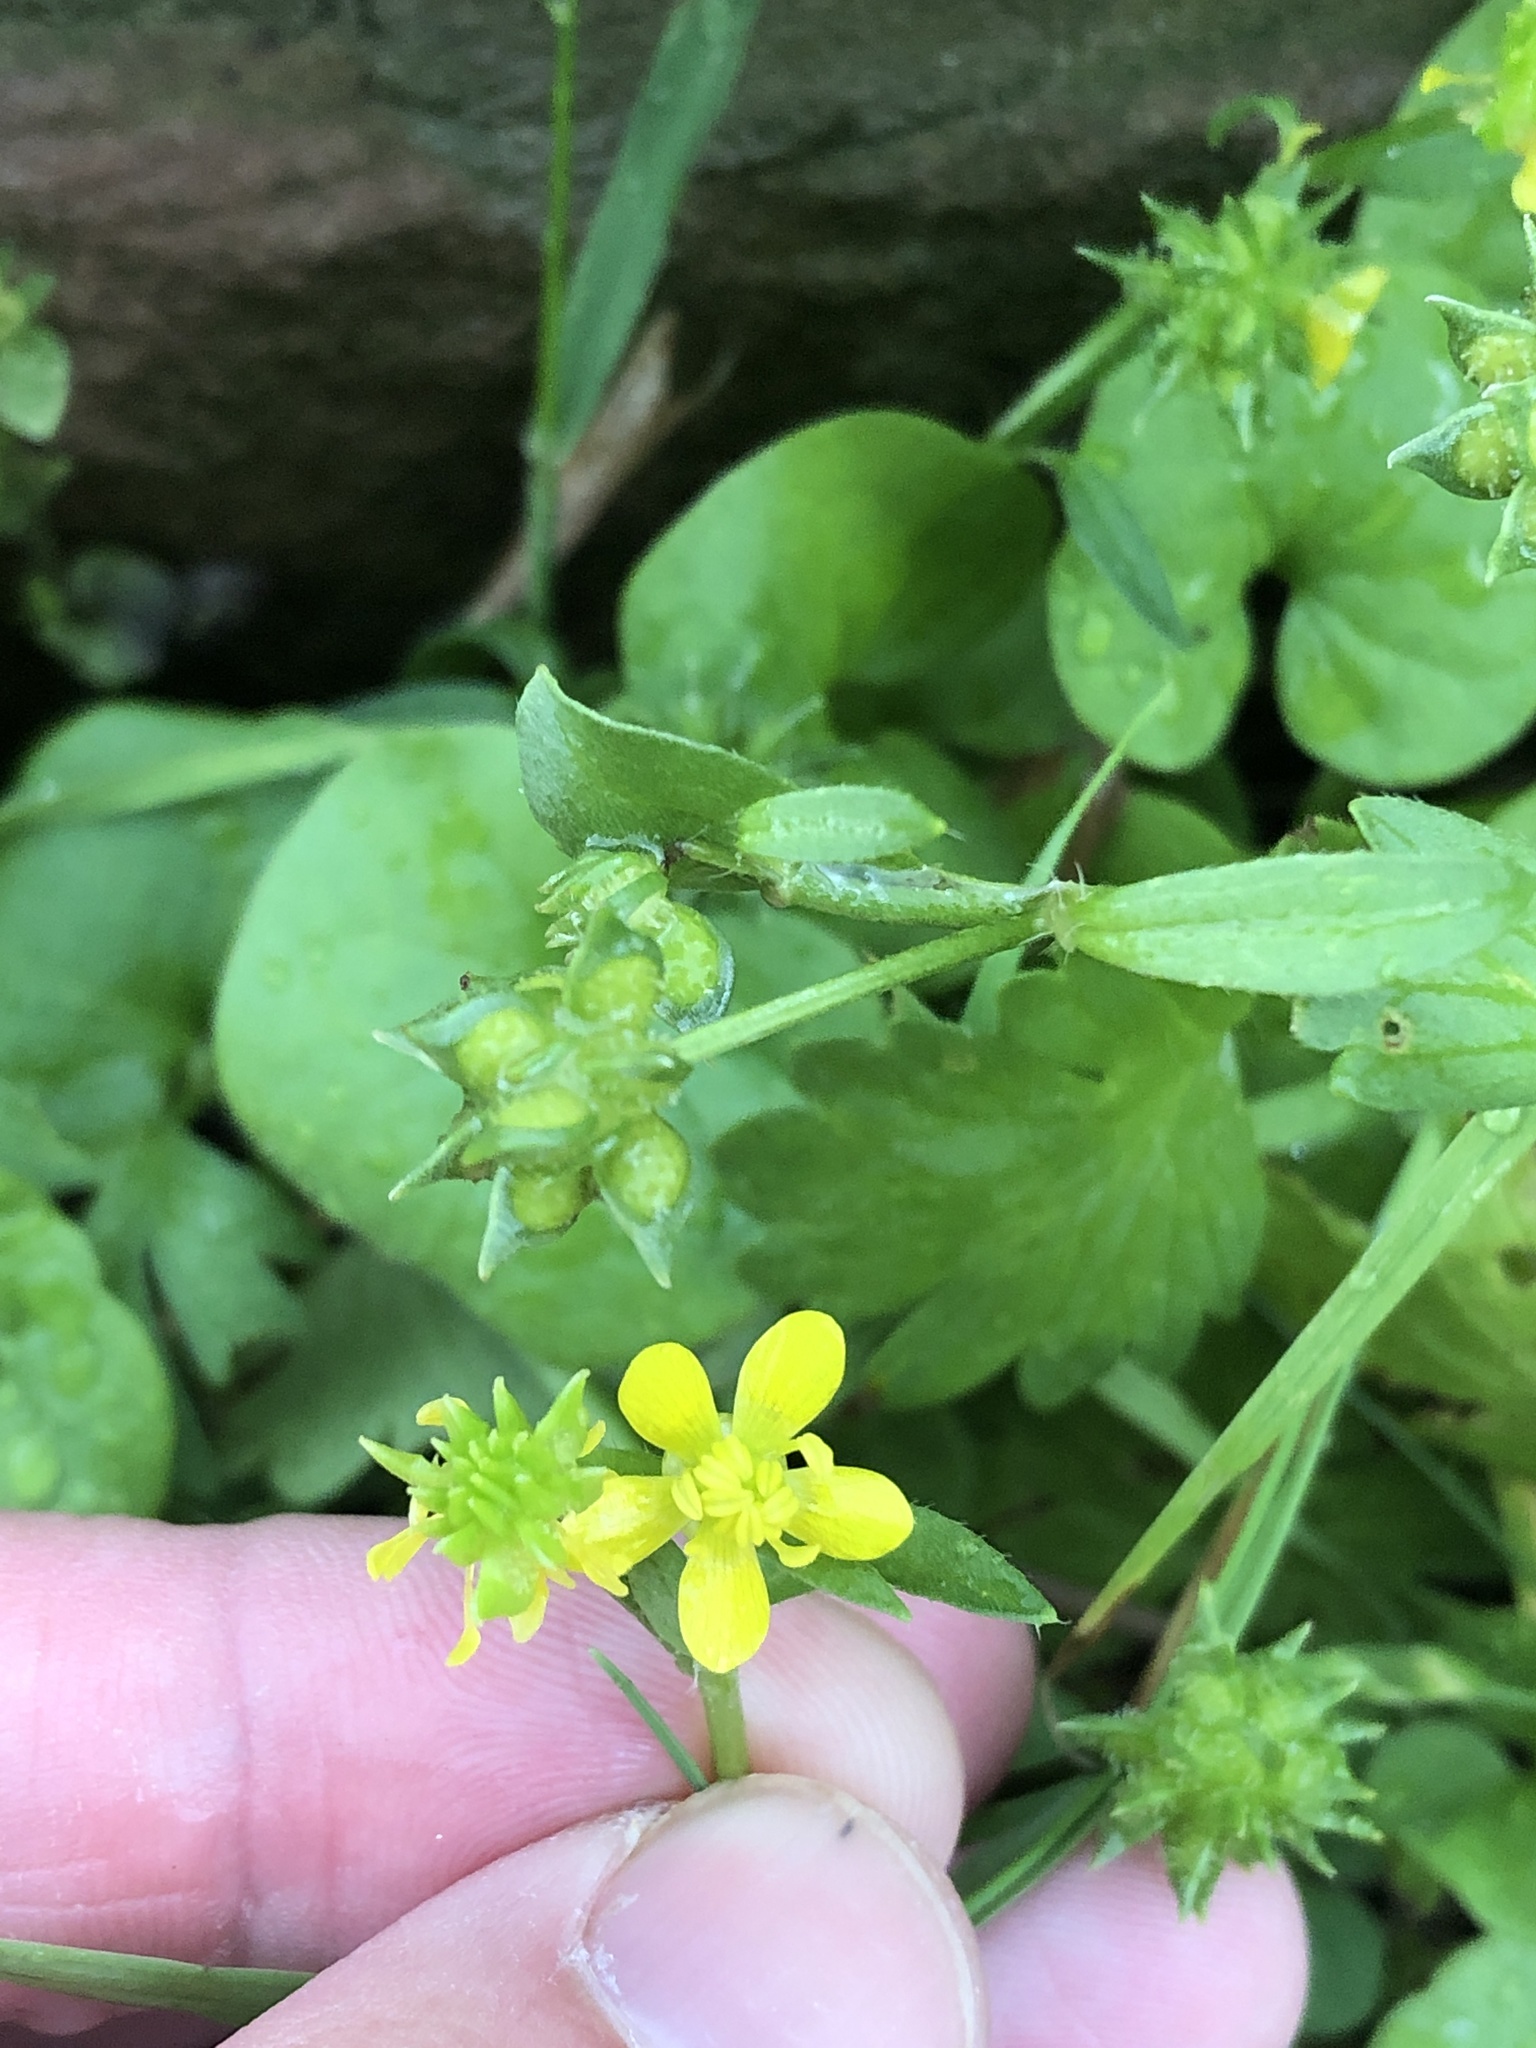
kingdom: Plantae
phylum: Tracheophyta
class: Magnoliopsida
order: Ranunculales
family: Ranunculaceae
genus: Ranunculus
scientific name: Ranunculus muricatus
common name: Rough-fruited buttercup
